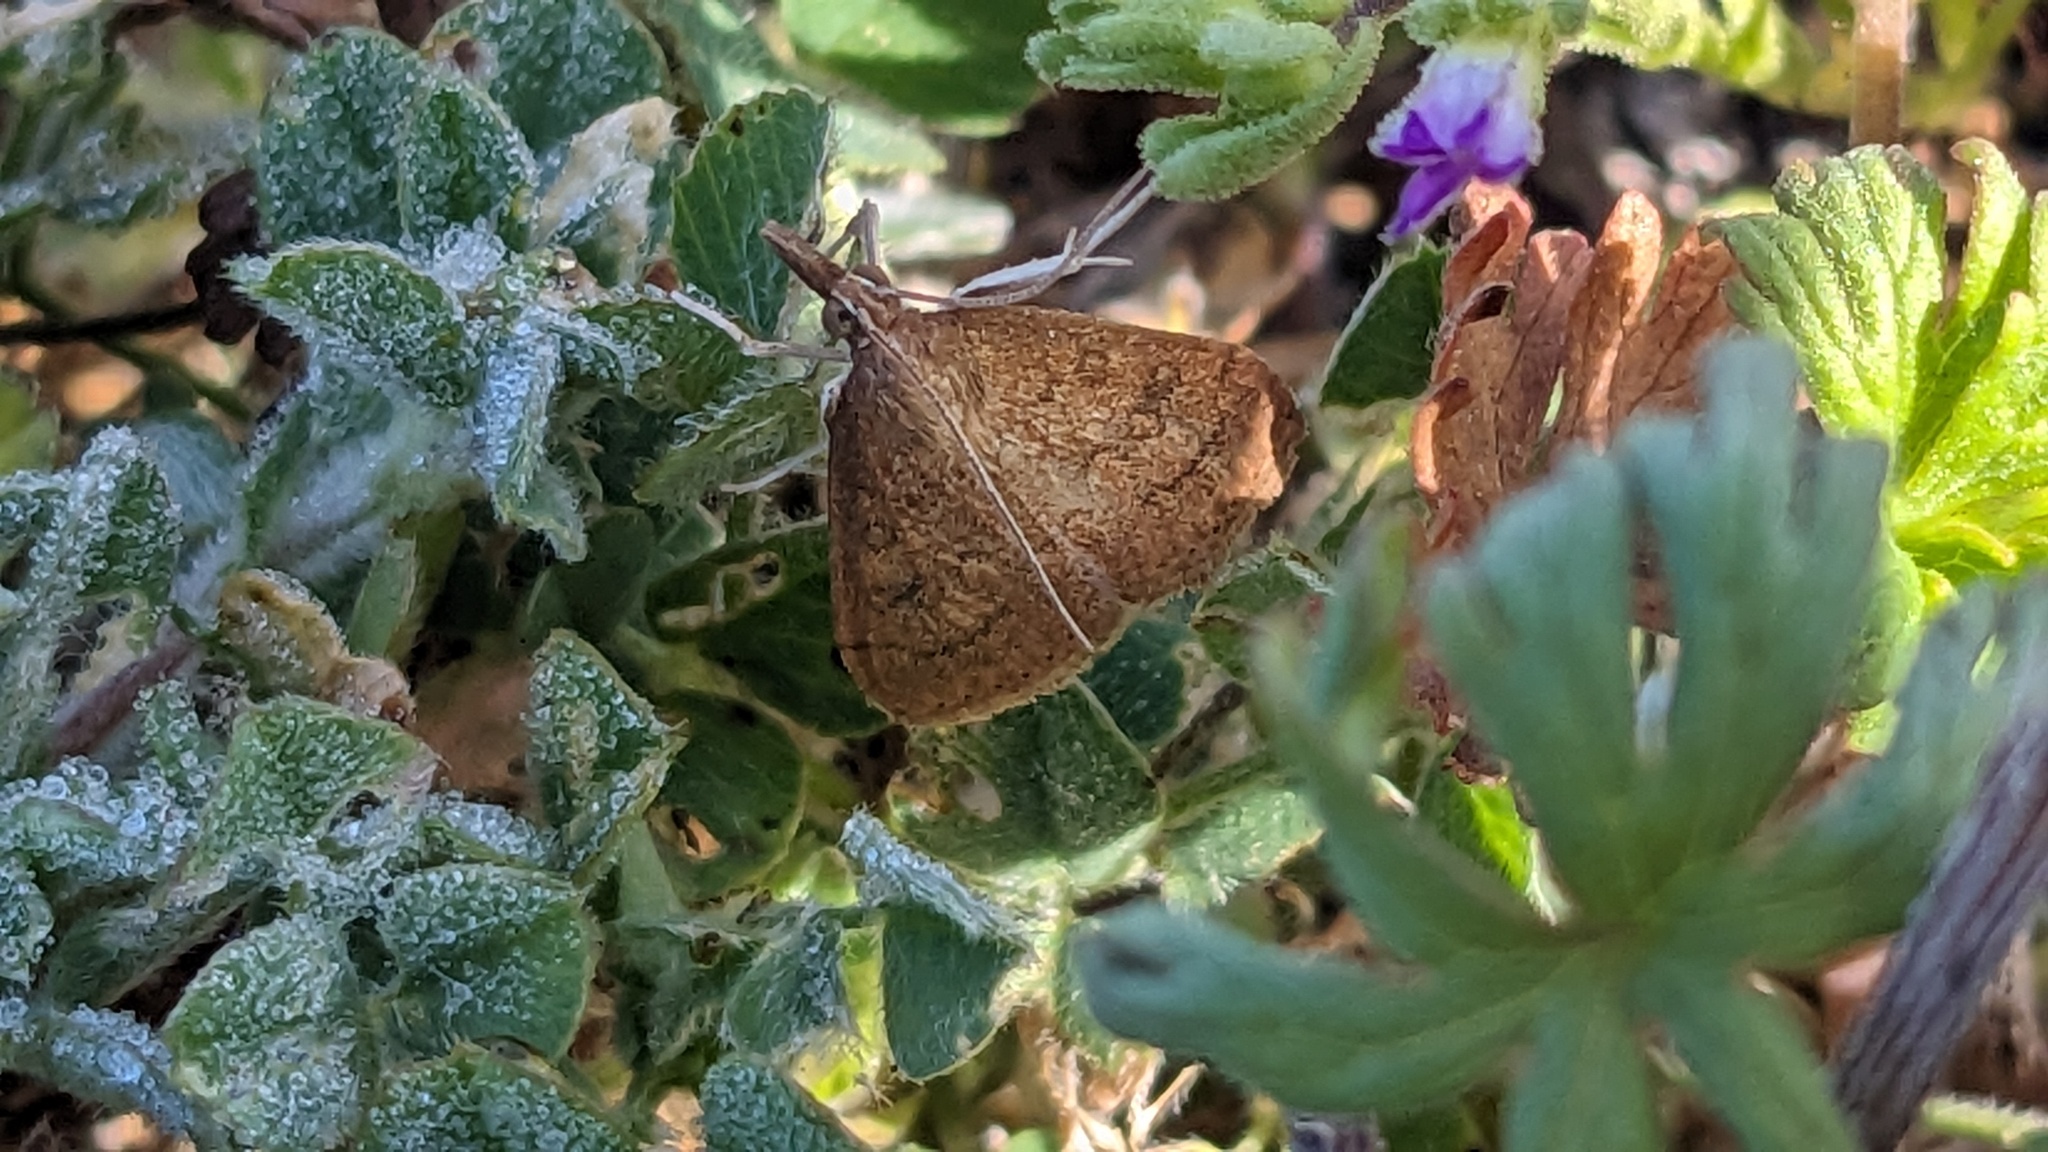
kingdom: Animalia
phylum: Arthropoda
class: Insecta
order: Lepidoptera
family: Crambidae
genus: Udea
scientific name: Udea rubigalis
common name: Celery leaftier moth
